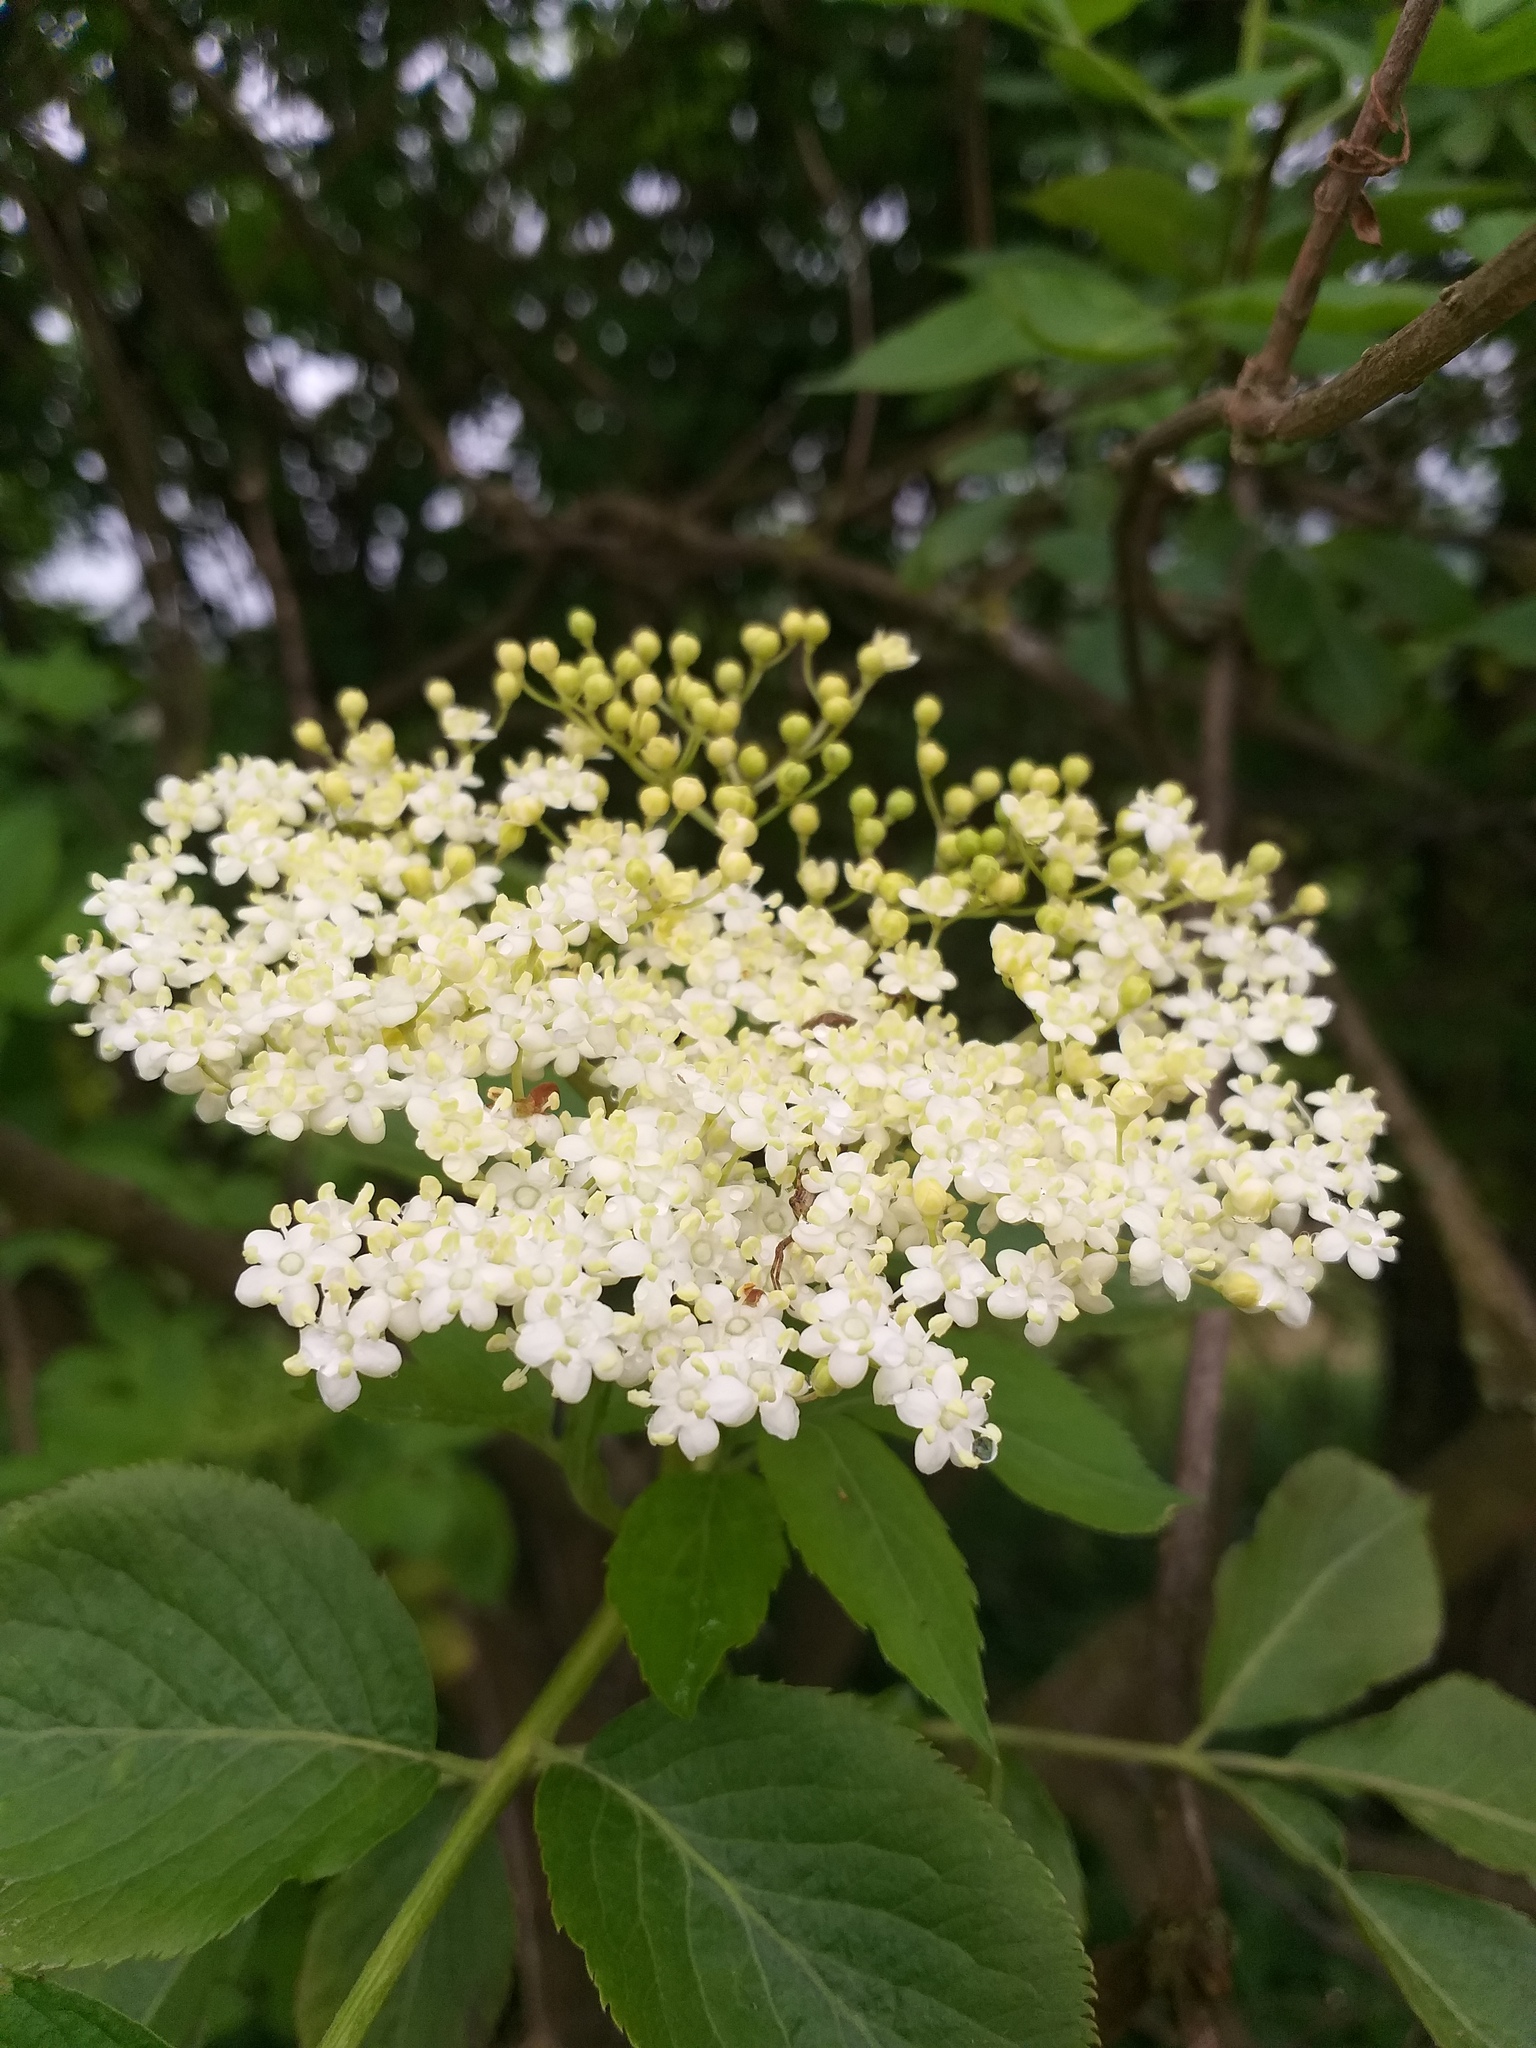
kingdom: Plantae
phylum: Tracheophyta
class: Magnoliopsida
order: Dipsacales
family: Viburnaceae
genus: Sambucus
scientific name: Sambucus nigra
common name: Elder
